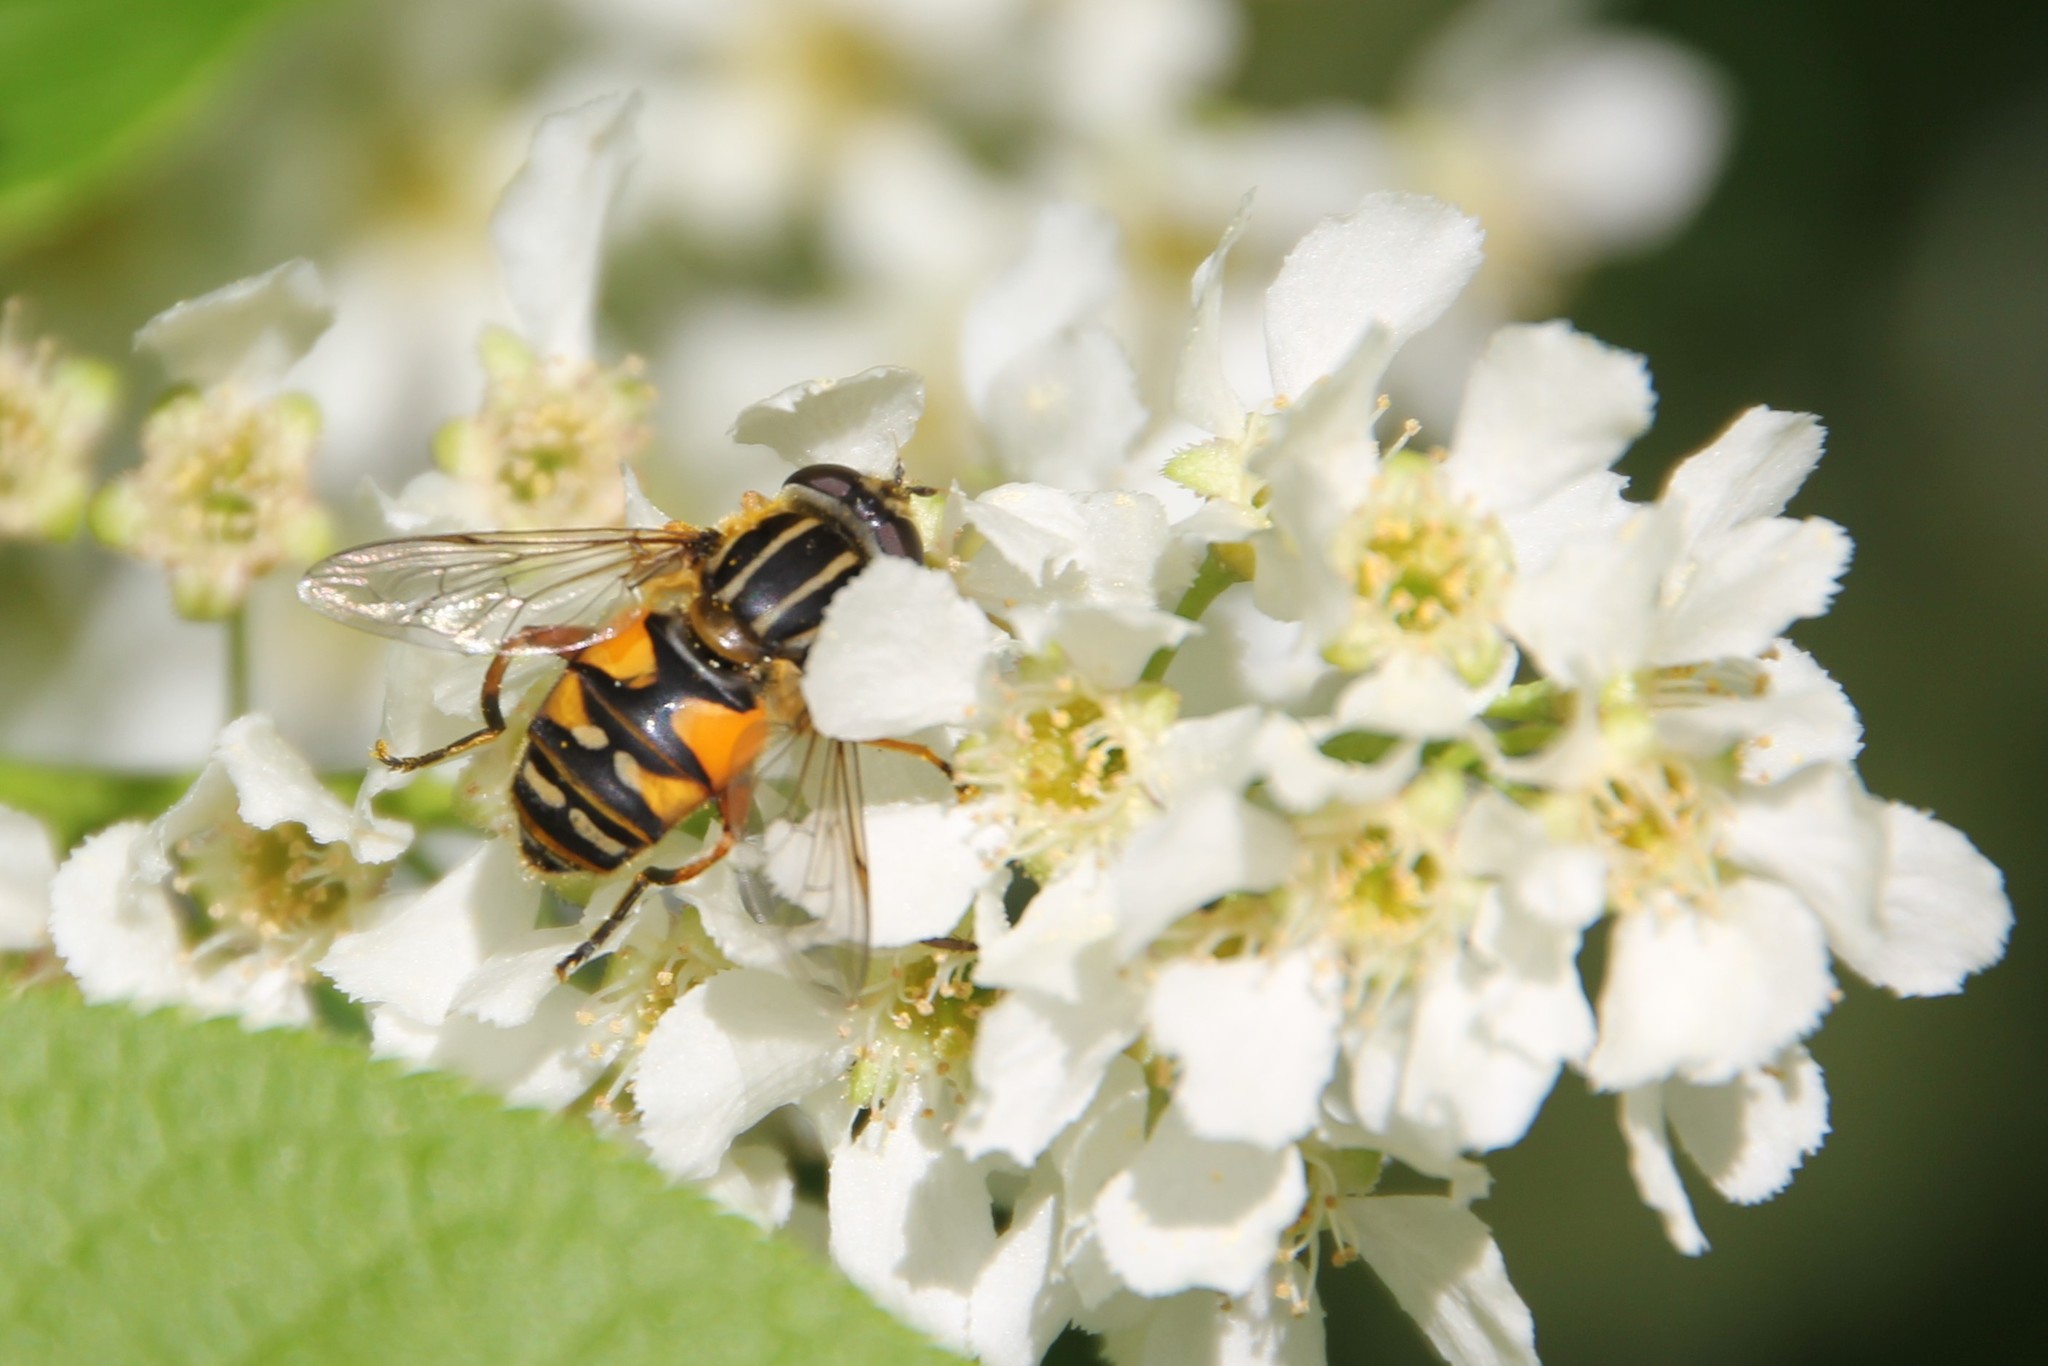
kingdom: Animalia
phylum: Arthropoda
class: Insecta
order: Diptera
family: Syrphidae
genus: Helophilus
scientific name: Helophilus pendulus
